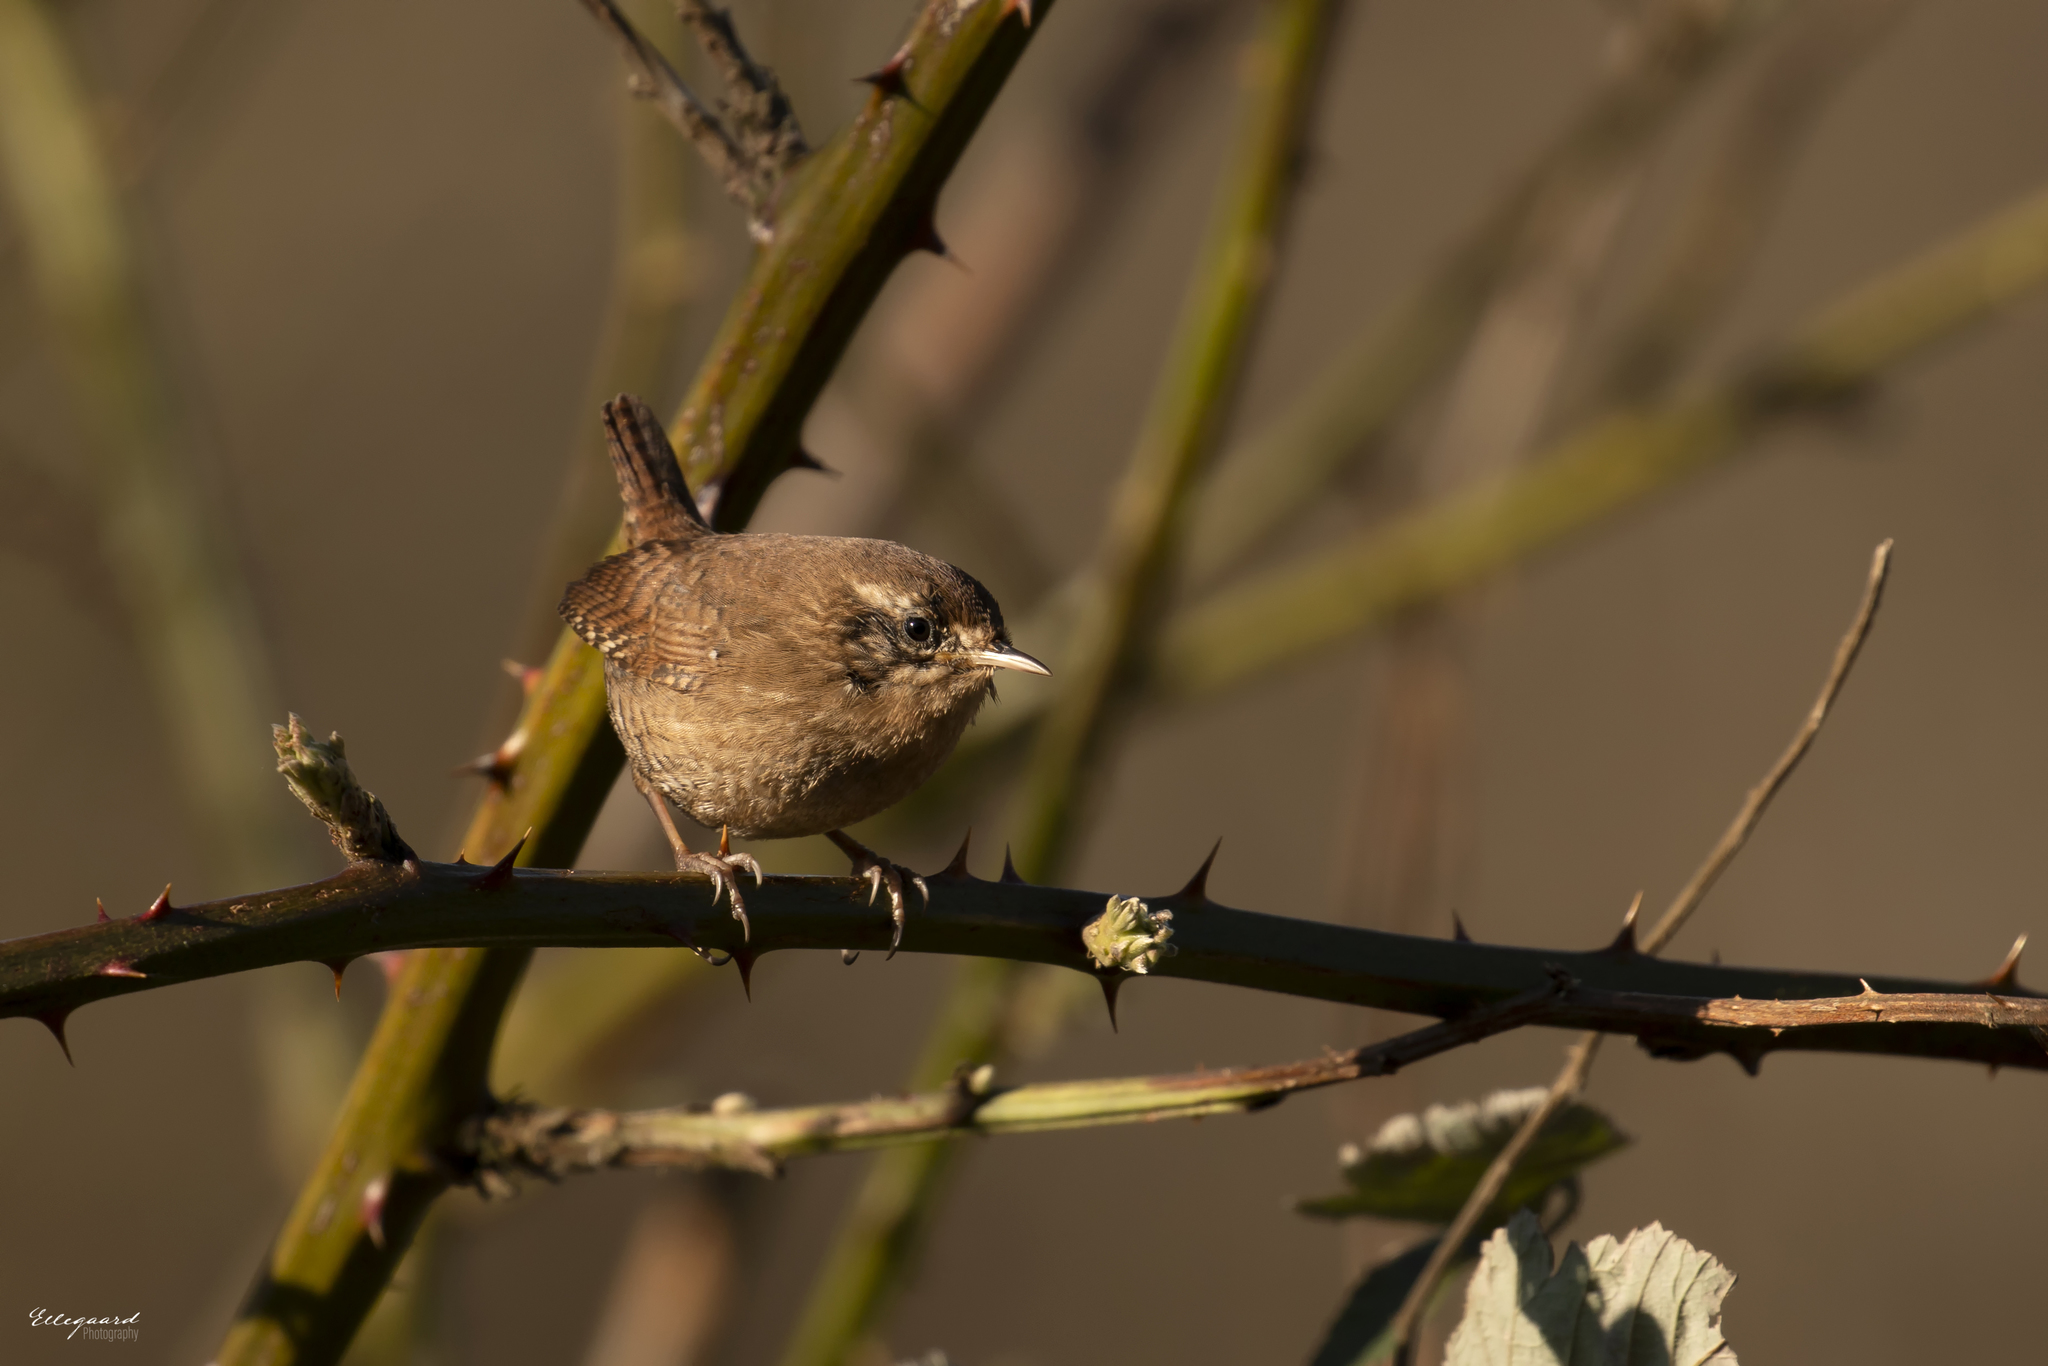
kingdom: Animalia
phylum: Chordata
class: Aves
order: Passeriformes
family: Troglodytidae
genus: Troglodytes
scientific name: Troglodytes troglodytes
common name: Eurasian wren
